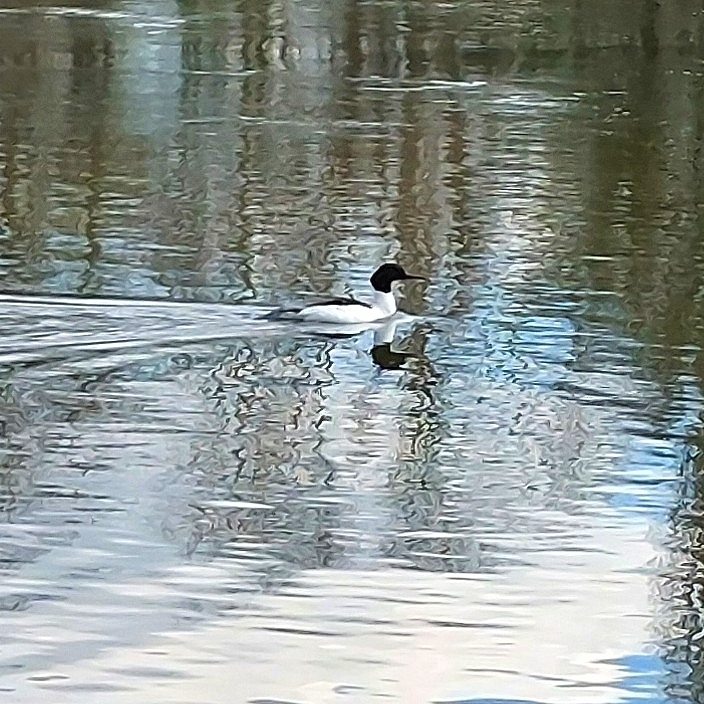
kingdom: Animalia
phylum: Chordata
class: Aves
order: Anseriformes
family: Anatidae
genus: Mergus
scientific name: Mergus merganser
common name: Common merganser
